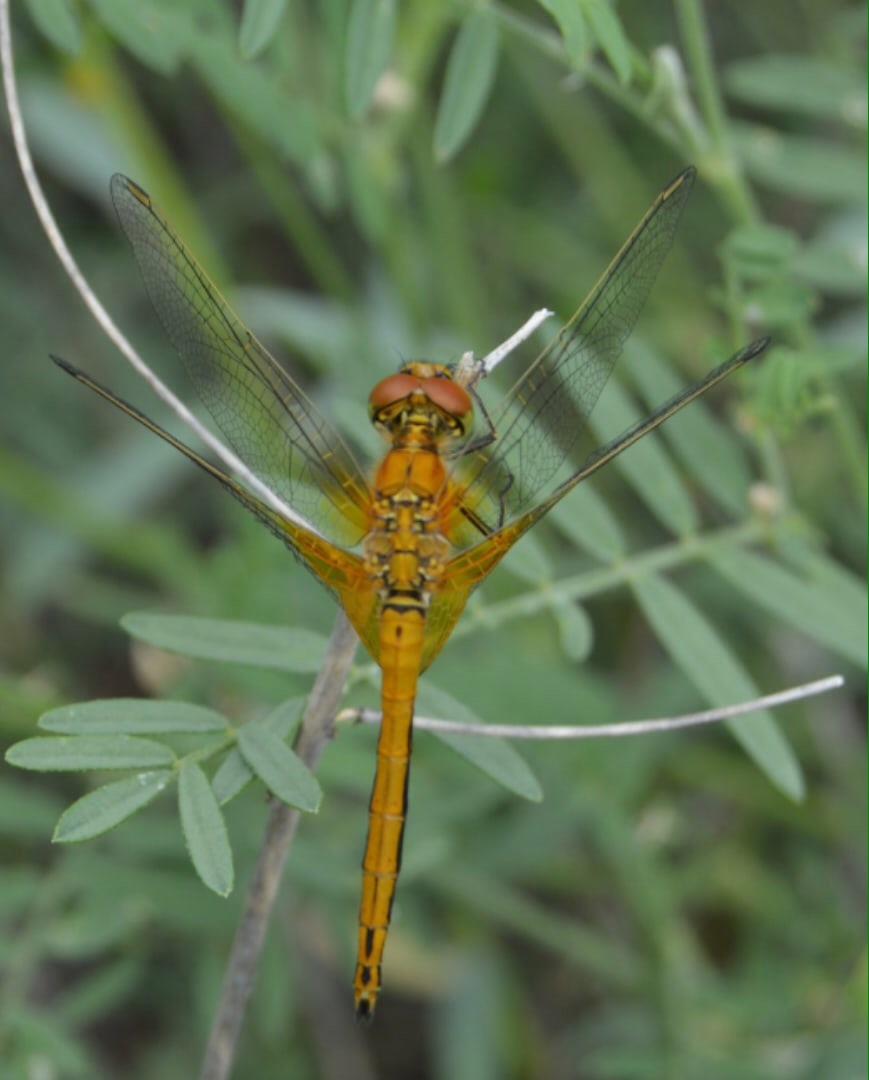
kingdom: Animalia
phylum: Arthropoda
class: Insecta
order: Odonata
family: Libellulidae
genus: Sympetrum
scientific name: Sympetrum flaveolum
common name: Yellow-winged darter
